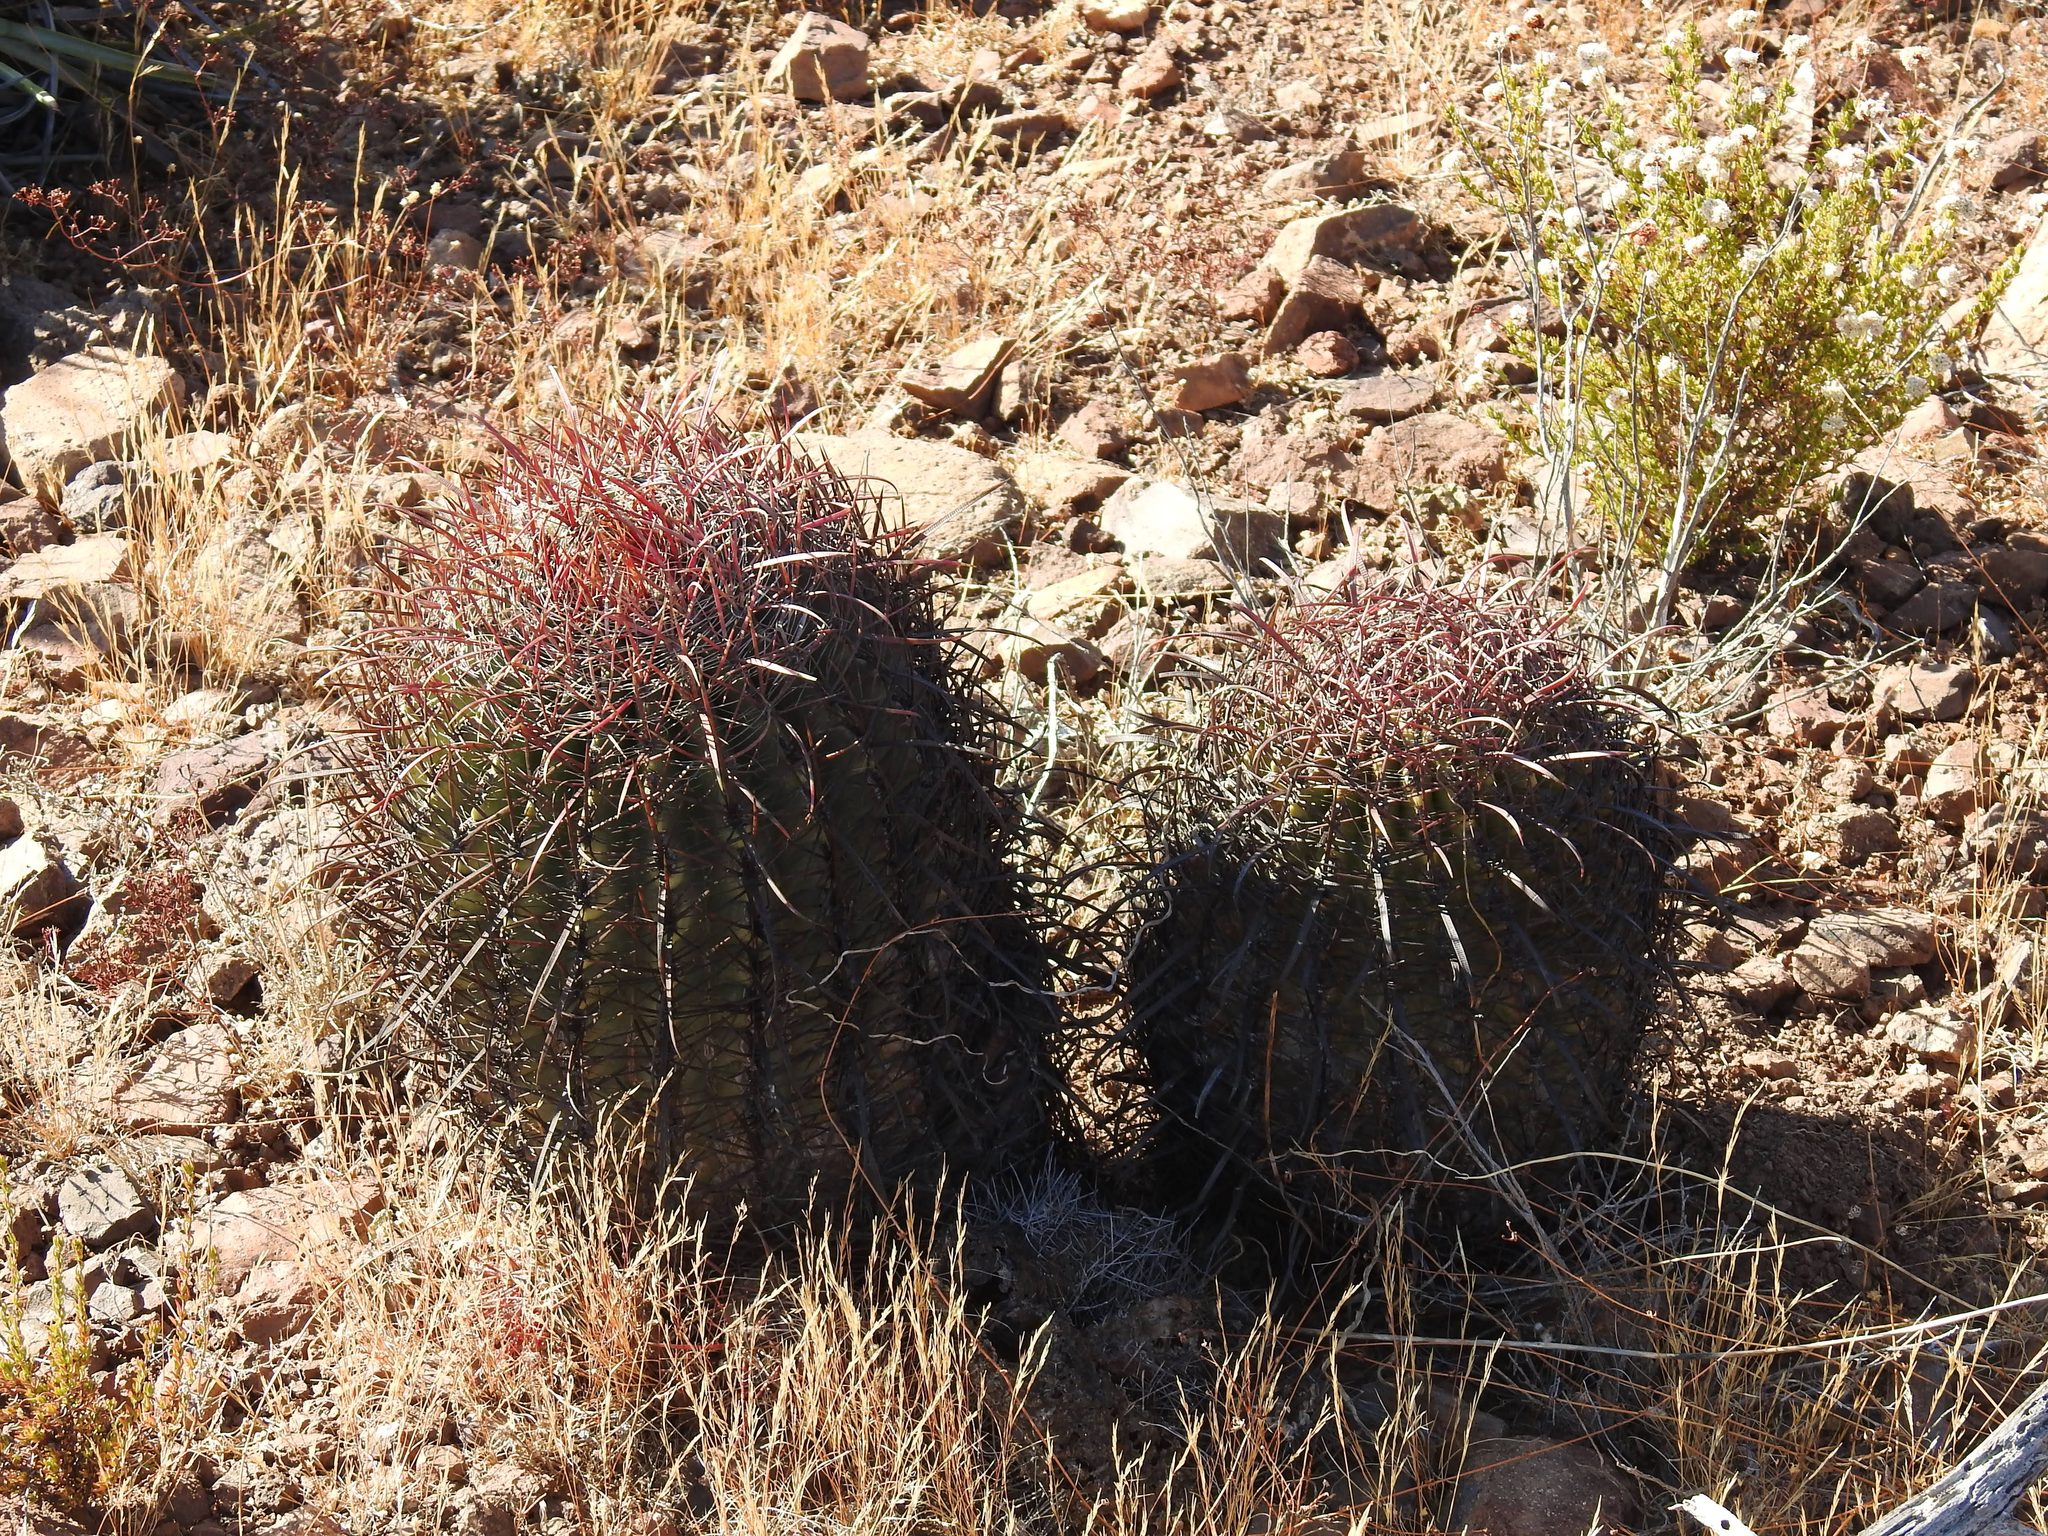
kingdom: Plantae
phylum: Tracheophyta
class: Magnoliopsida
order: Caryophyllales
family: Cactaceae
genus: Ferocactus
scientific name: Ferocactus gracilis
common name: Fire barrel cactus
